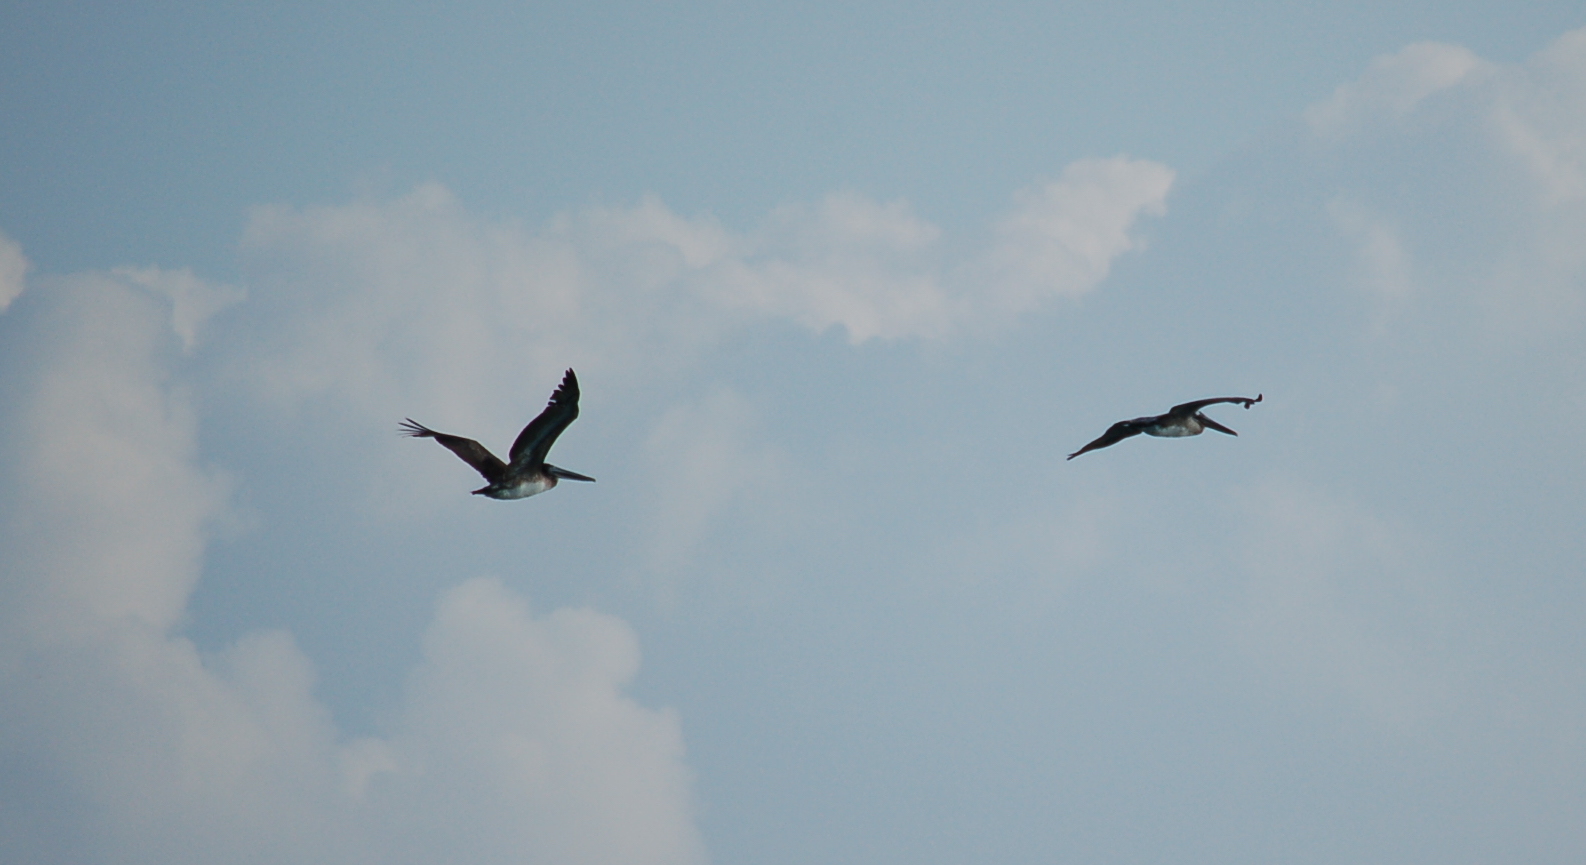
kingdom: Animalia
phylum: Chordata
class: Aves
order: Pelecaniformes
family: Pelecanidae
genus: Pelecanus
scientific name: Pelecanus occidentalis
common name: Brown pelican
